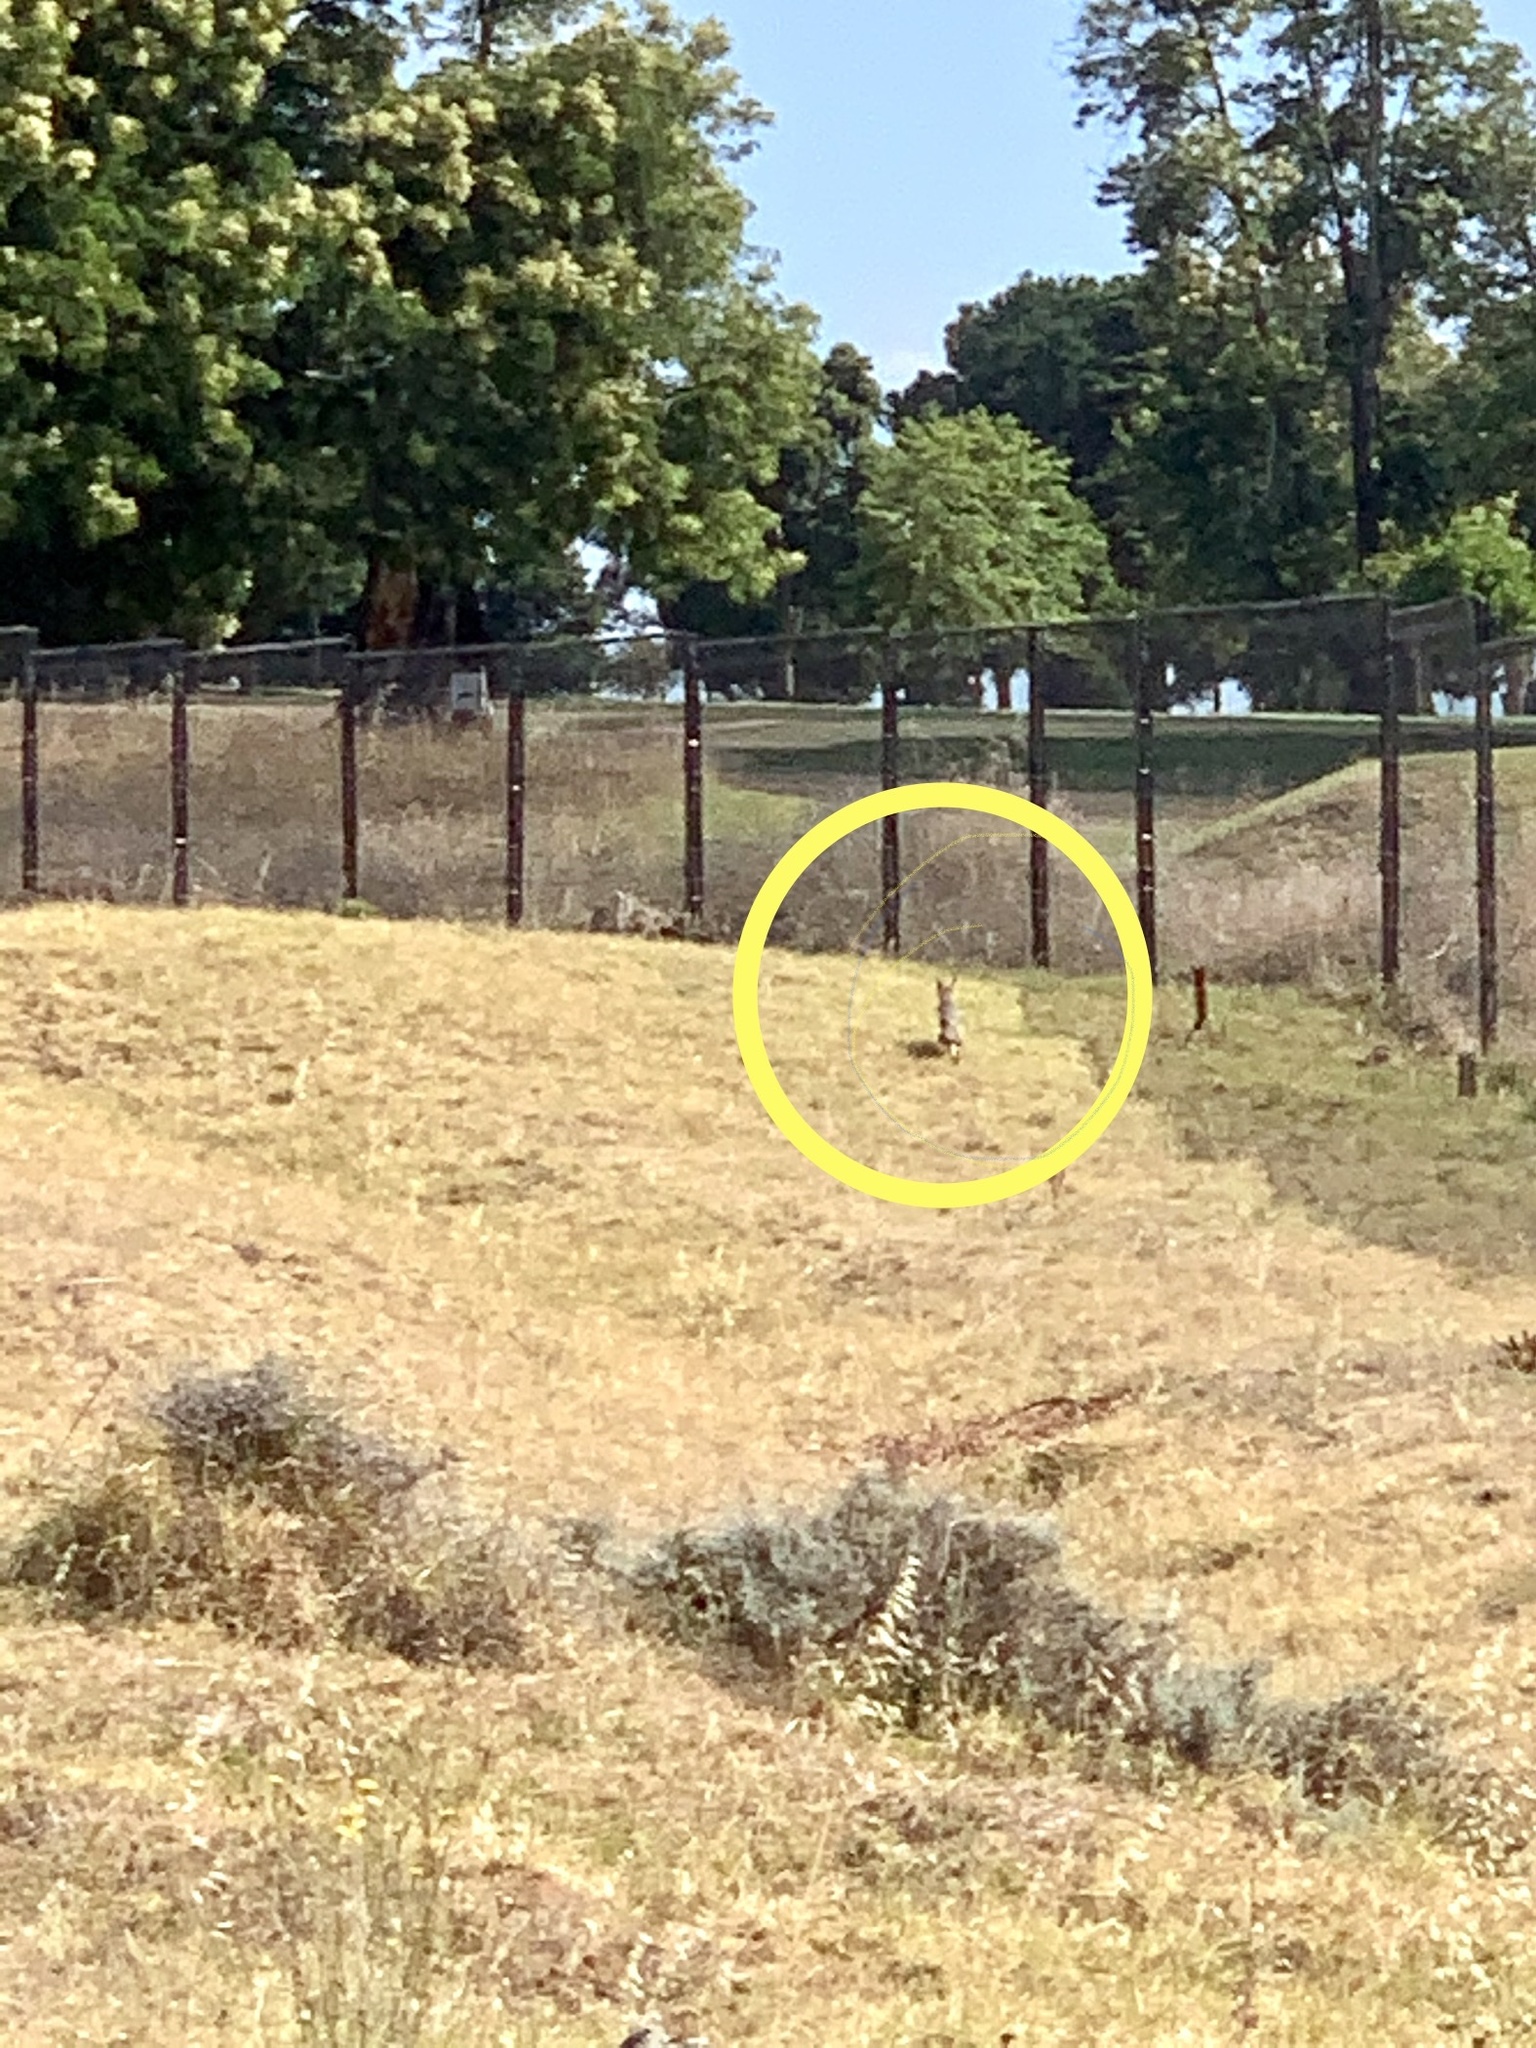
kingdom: Animalia
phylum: Chordata
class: Mammalia
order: Carnivora
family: Canidae
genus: Vulpes
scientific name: Vulpes chama
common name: Cape fox
